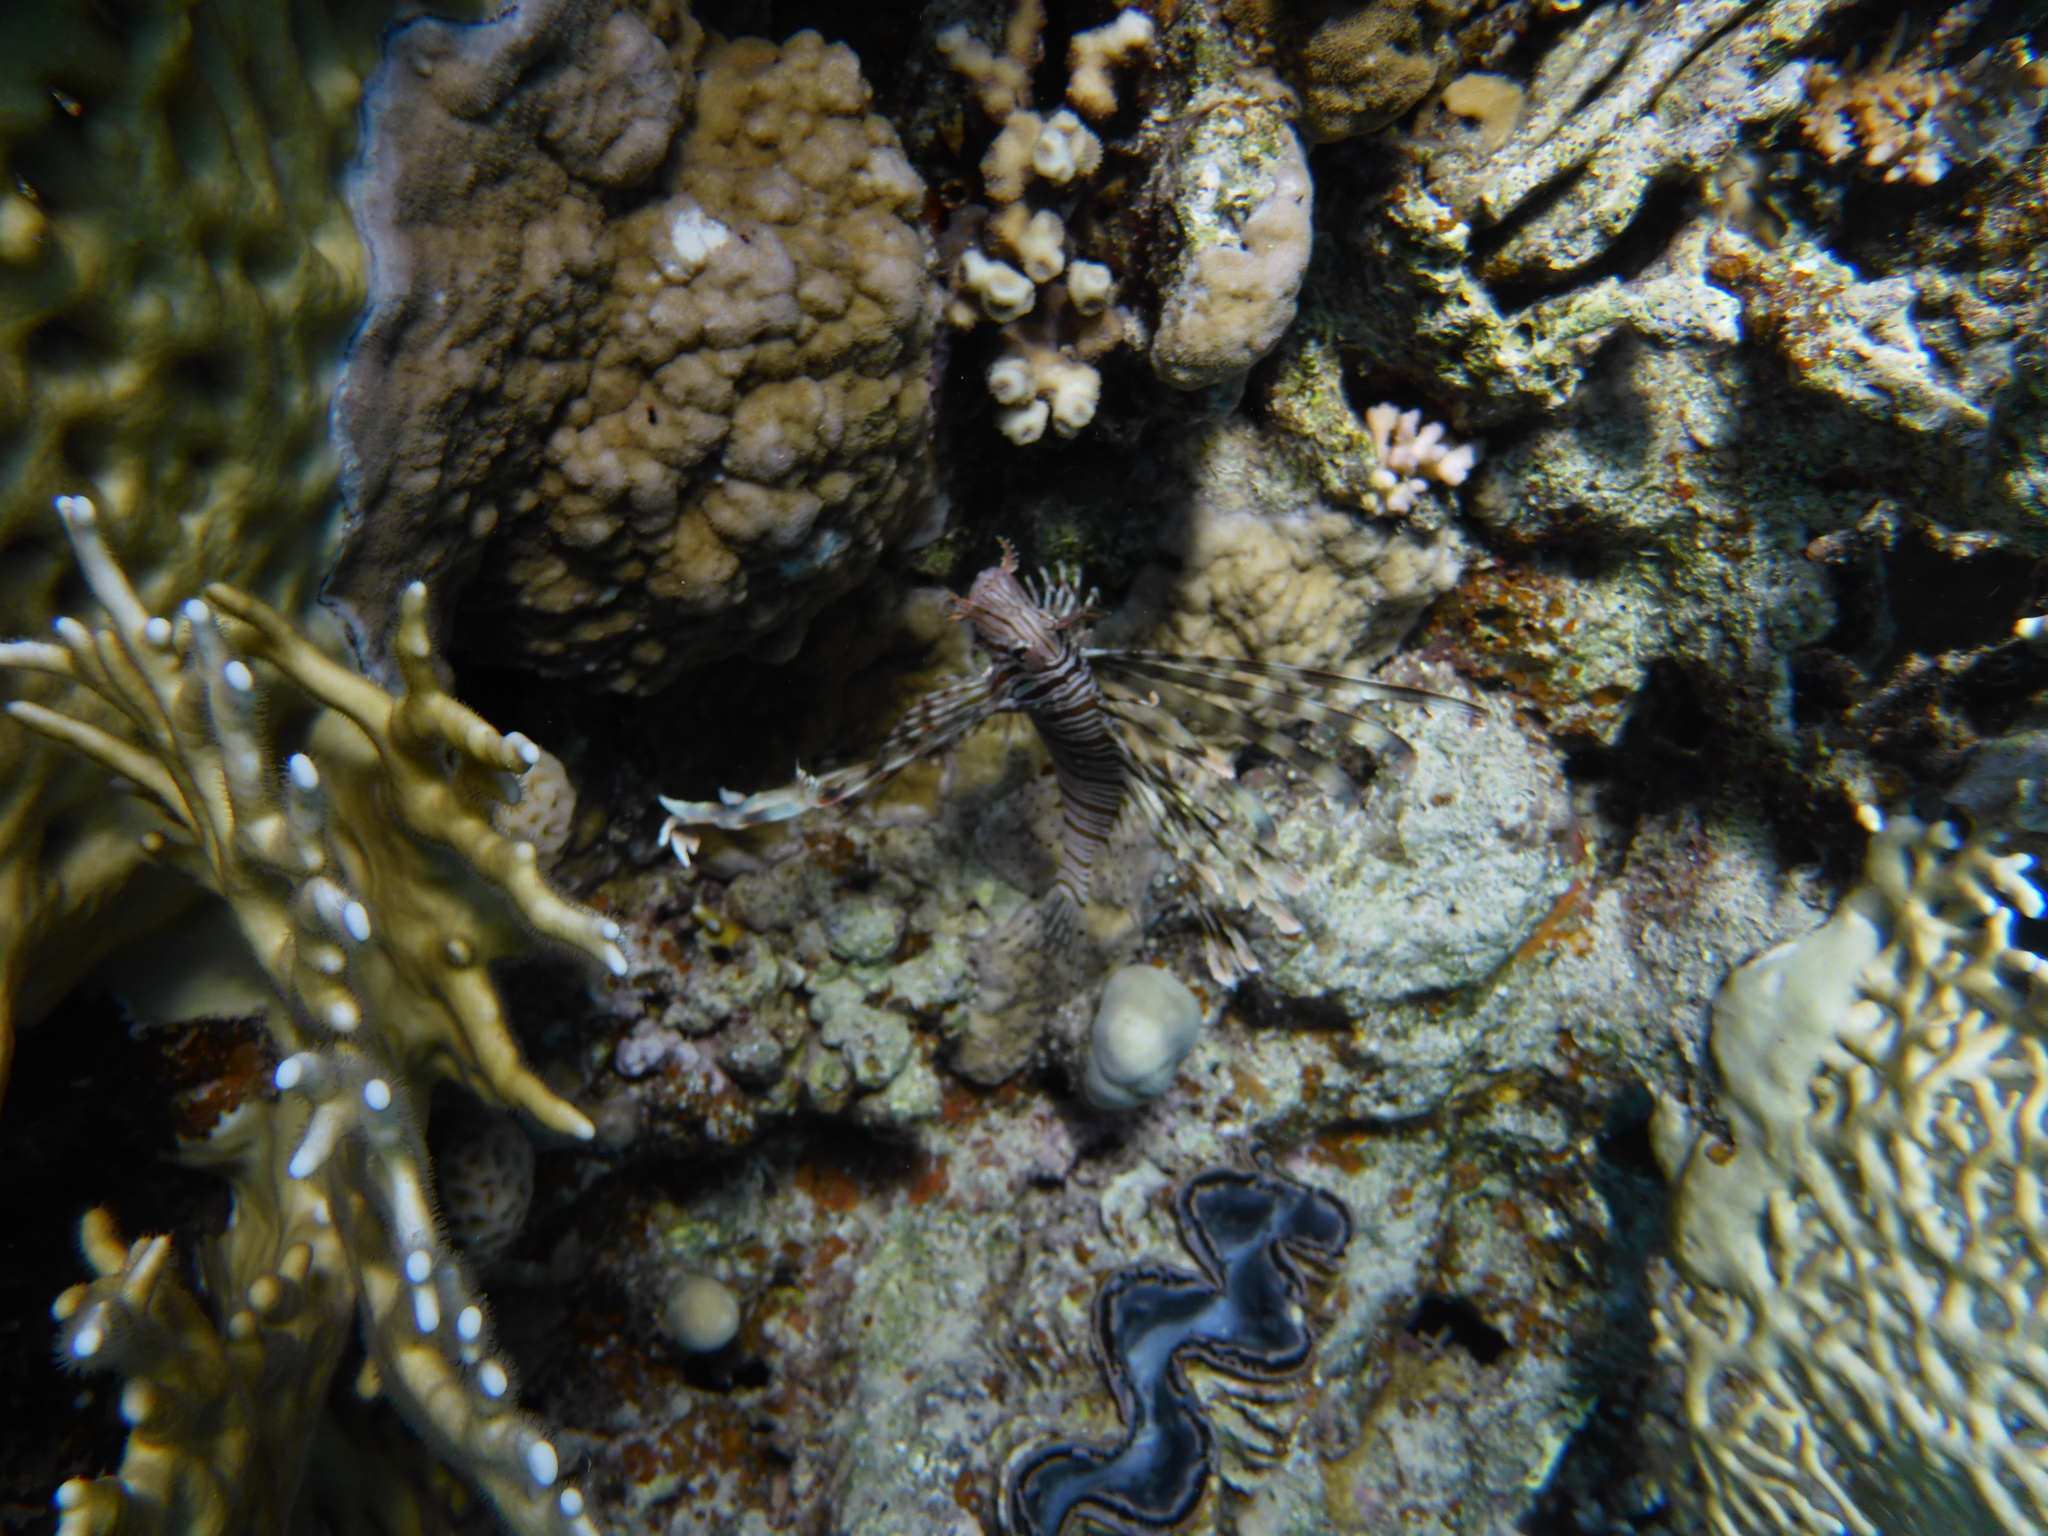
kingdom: Animalia
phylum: Chordata
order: Scorpaeniformes
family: Scorpaenidae
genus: Pterois
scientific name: Pterois miles
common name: Devil firefish
